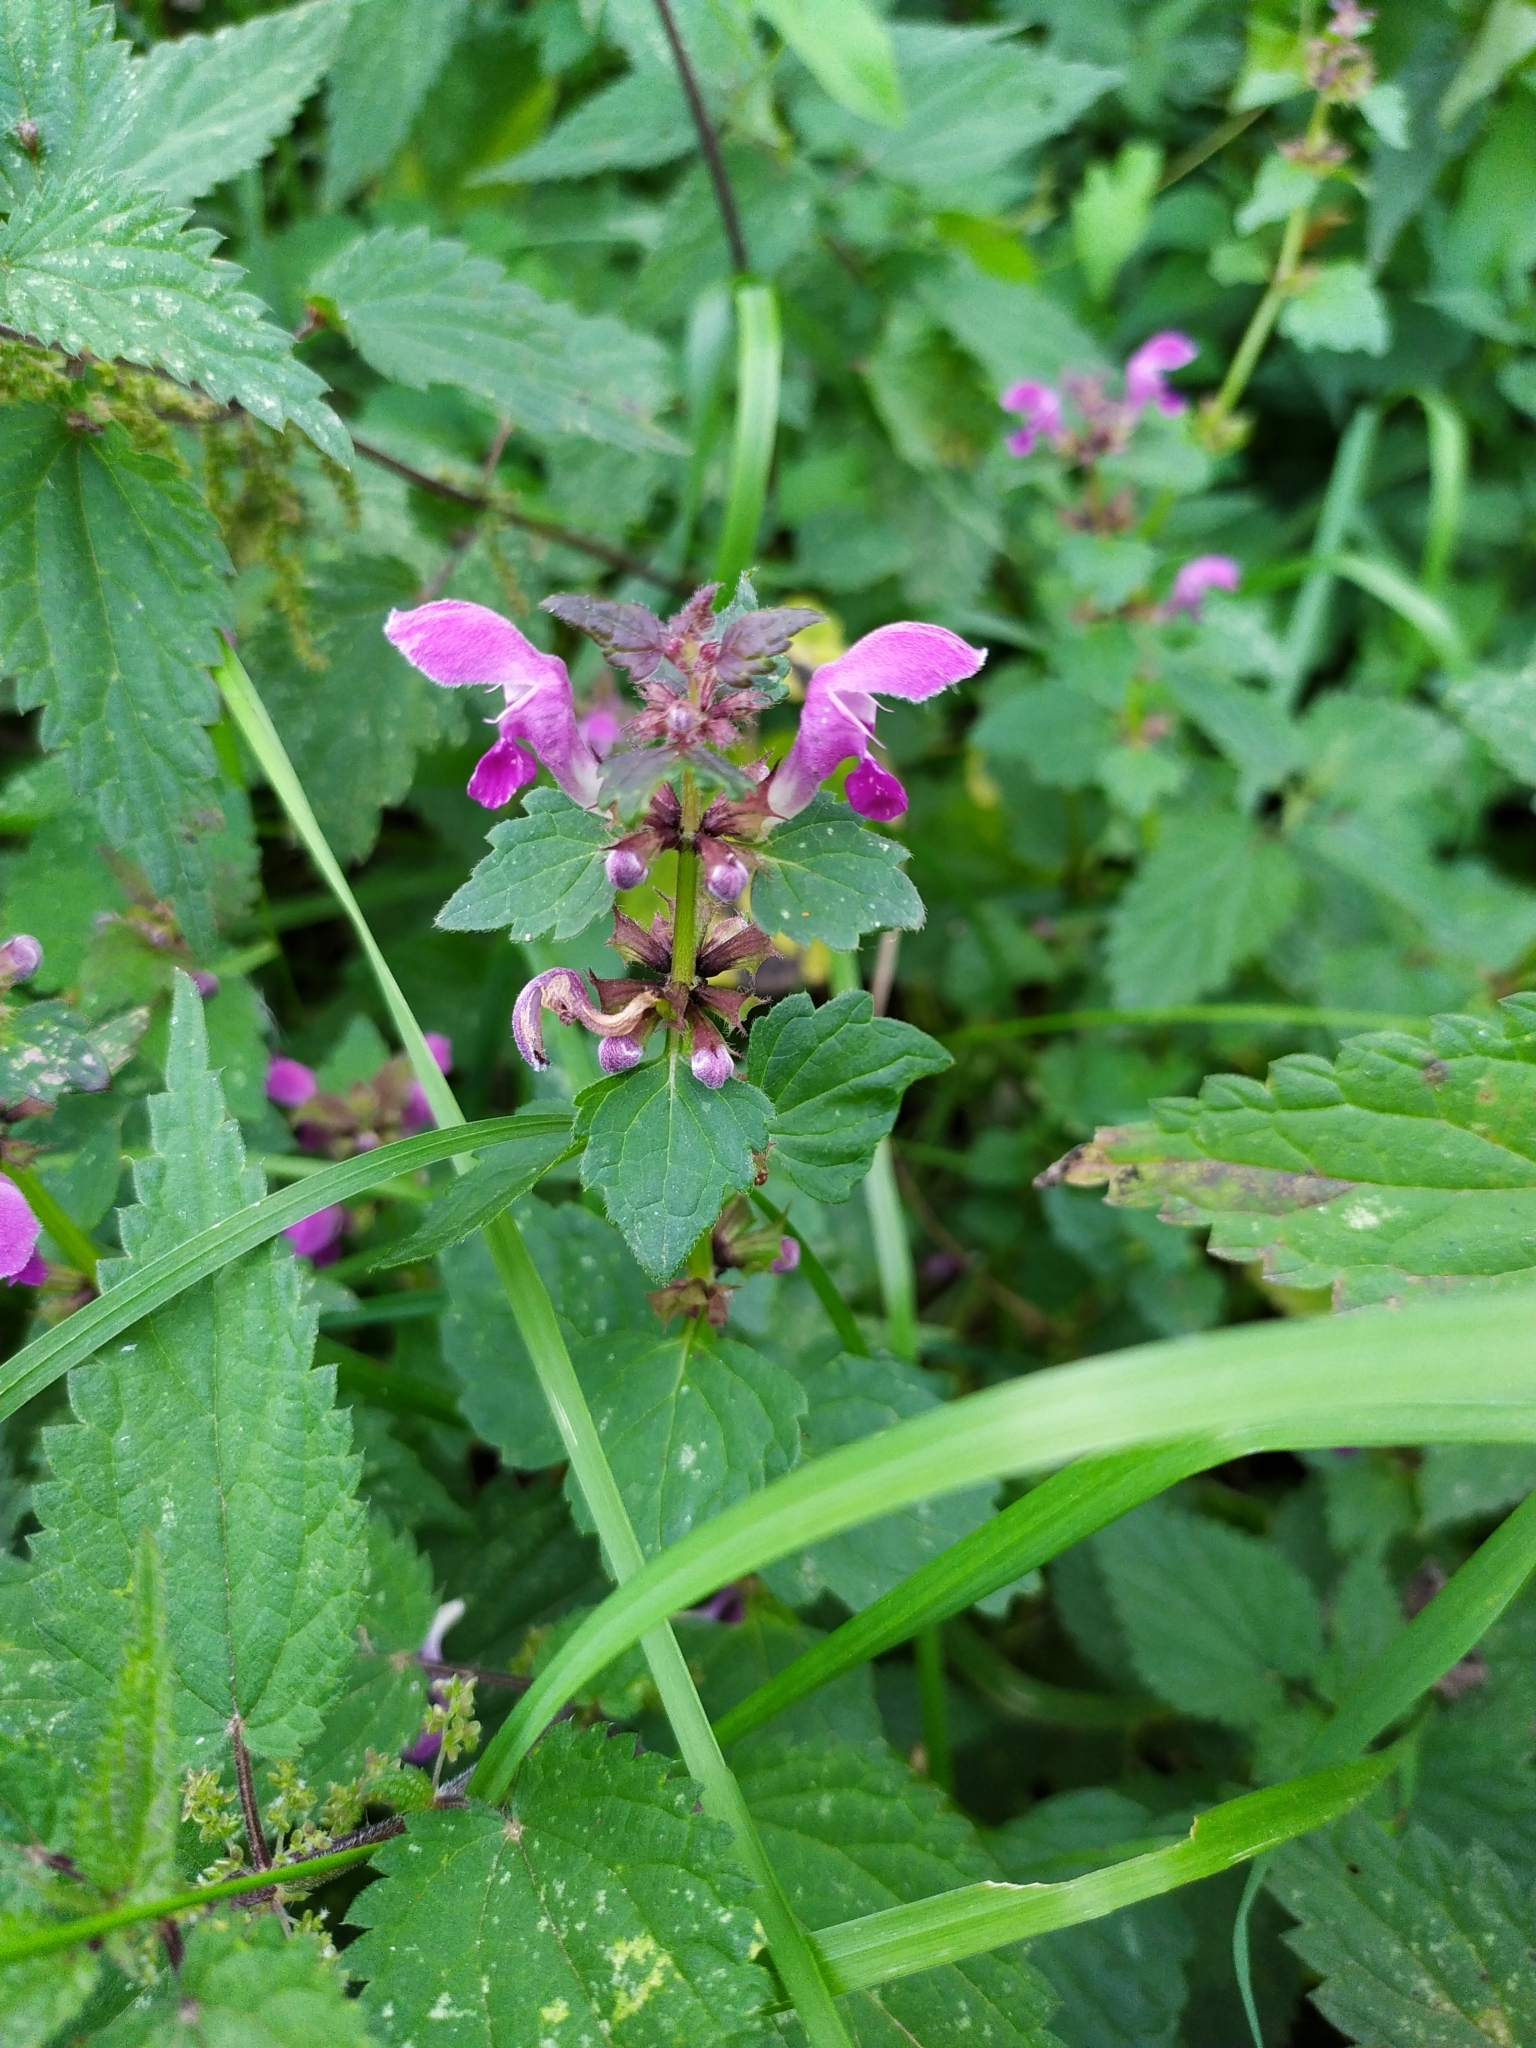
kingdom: Plantae
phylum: Tracheophyta
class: Magnoliopsida
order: Lamiales
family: Lamiaceae
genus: Lamium
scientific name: Lamium maculatum
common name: Spotted dead-nettle
